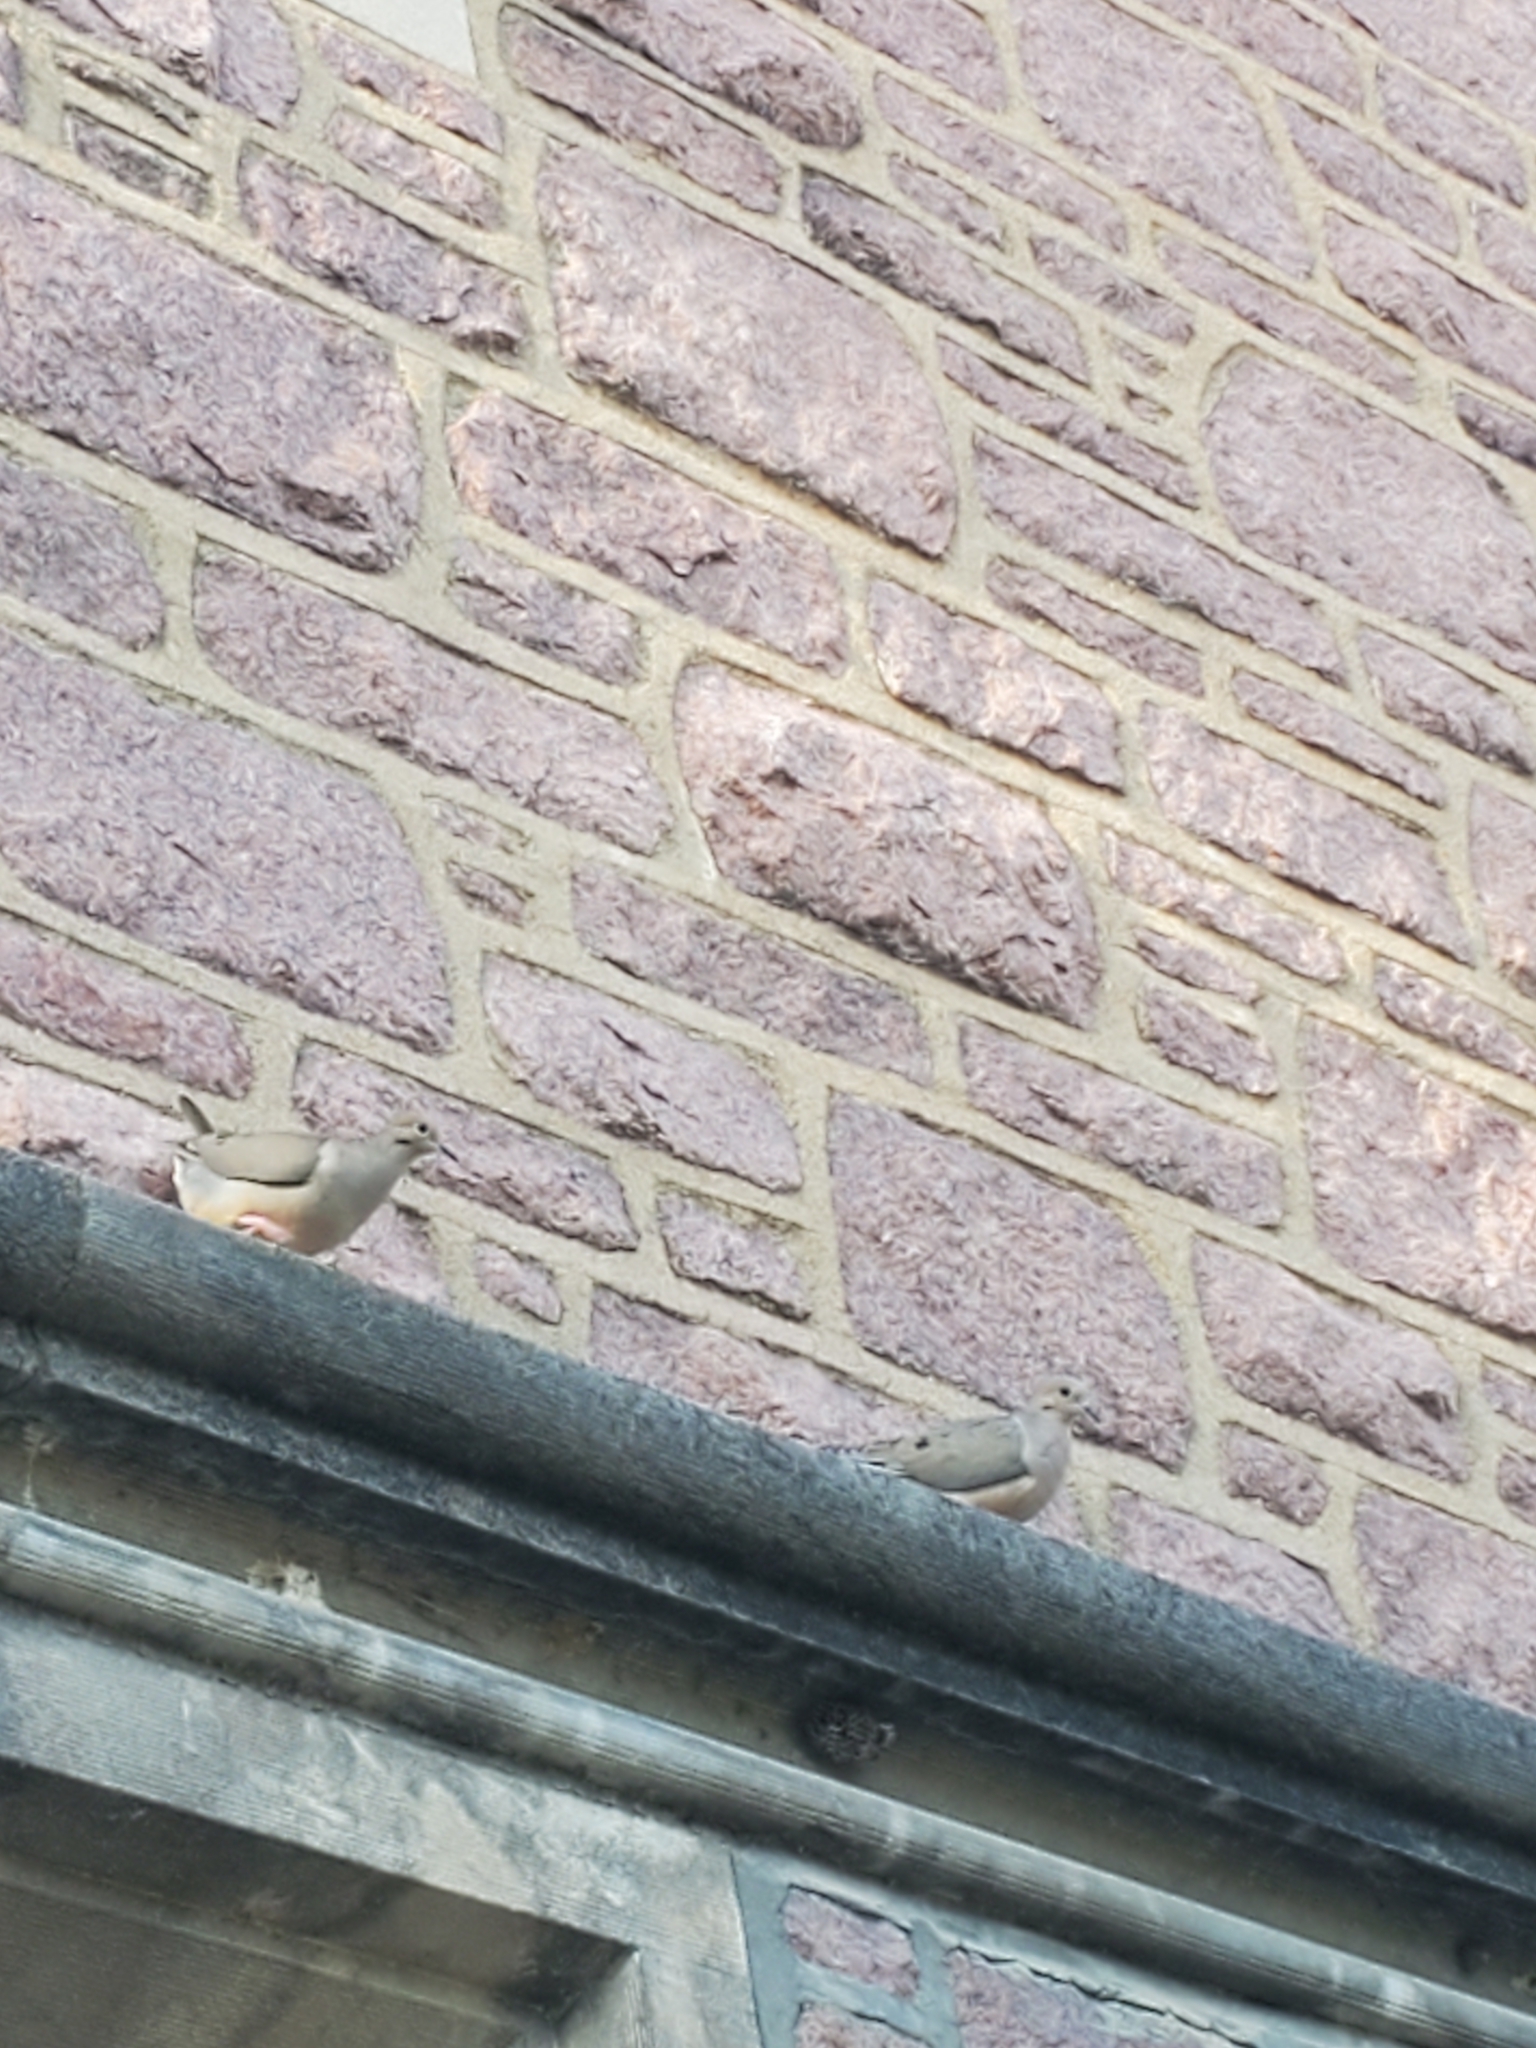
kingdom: Animalia
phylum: Chordata
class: Aves
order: Columbiformes
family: Columbidae
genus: Zenaida
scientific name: Zenaida macroura
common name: Mourning dove
